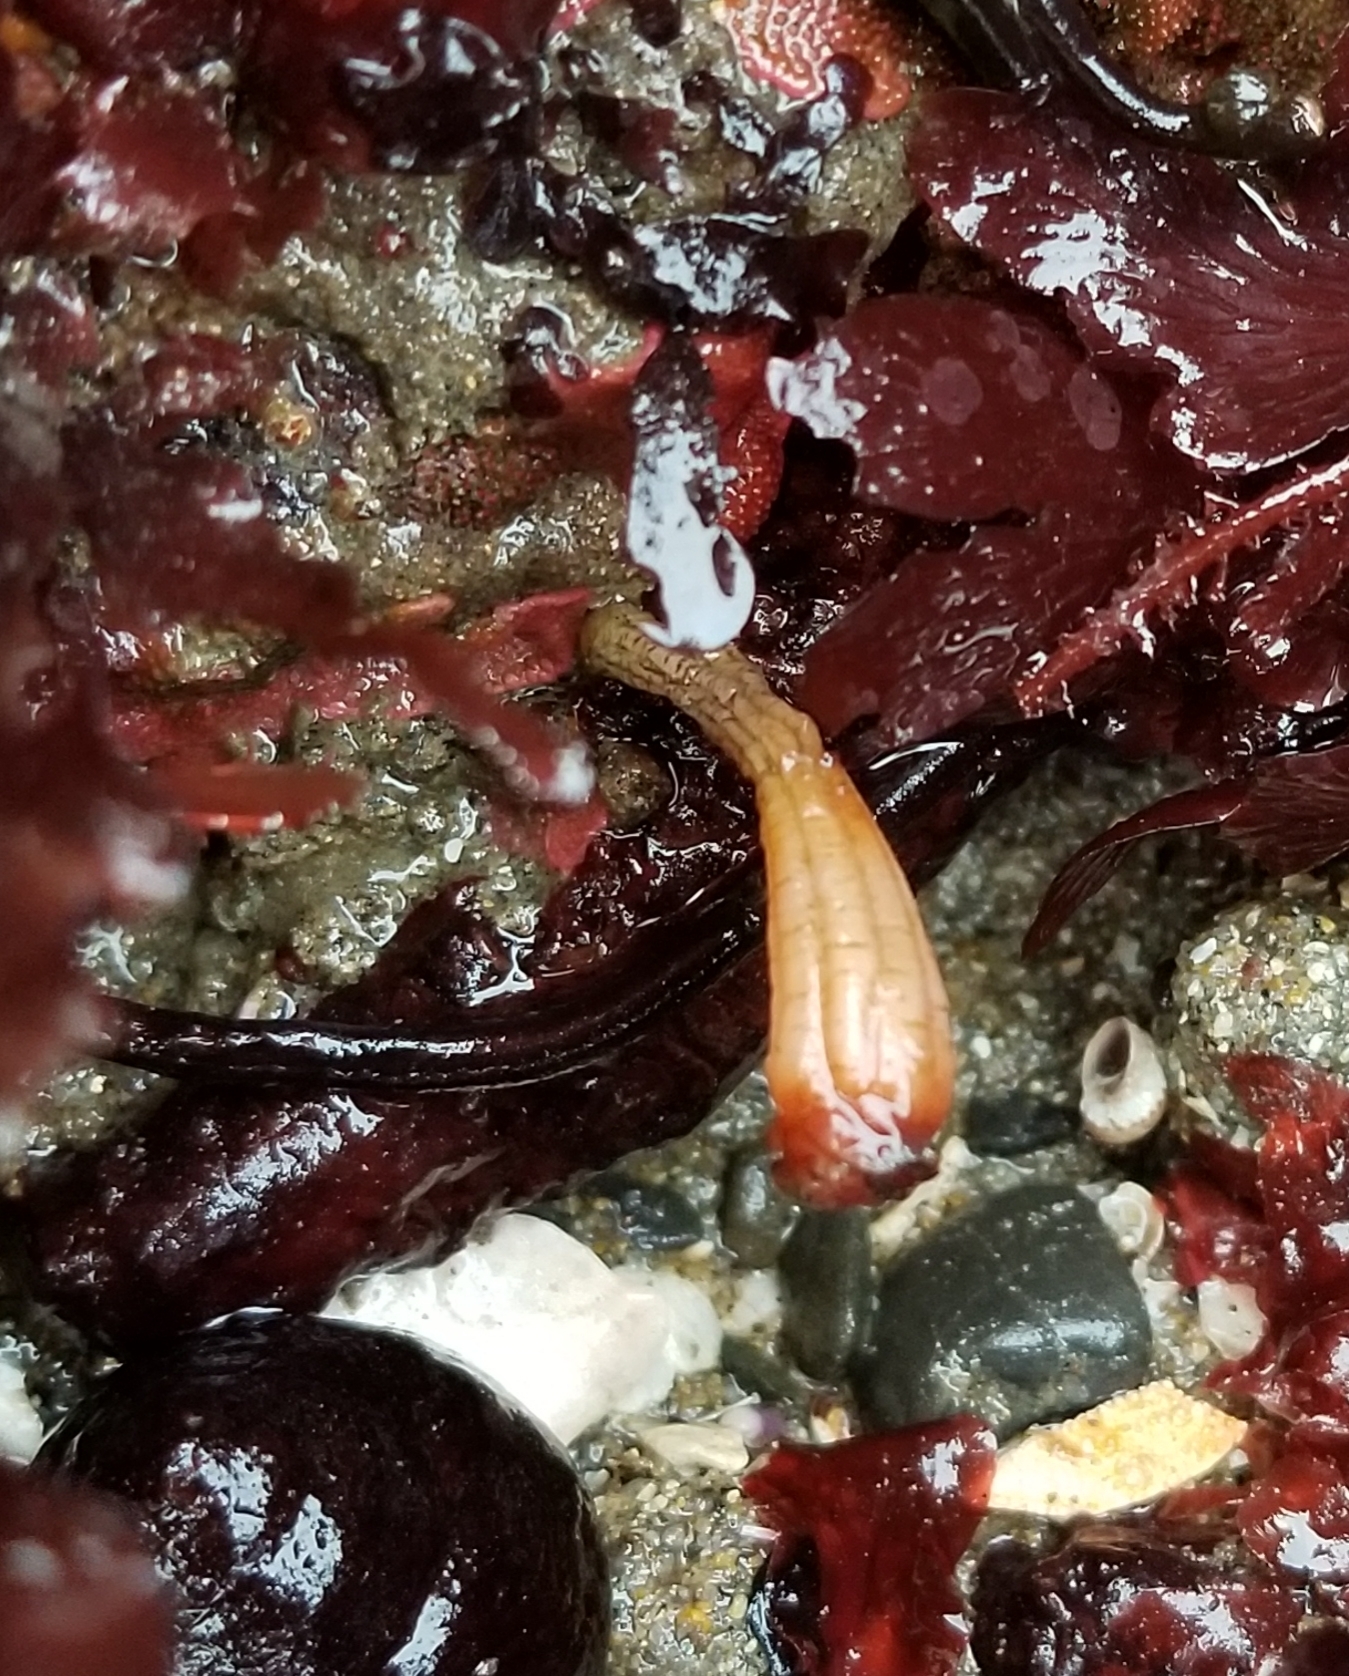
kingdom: Animalia
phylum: Chordata
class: Ascidiacea
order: Stolidobranchia
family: Styelidae
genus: Styela
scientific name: Styela montereyensis
